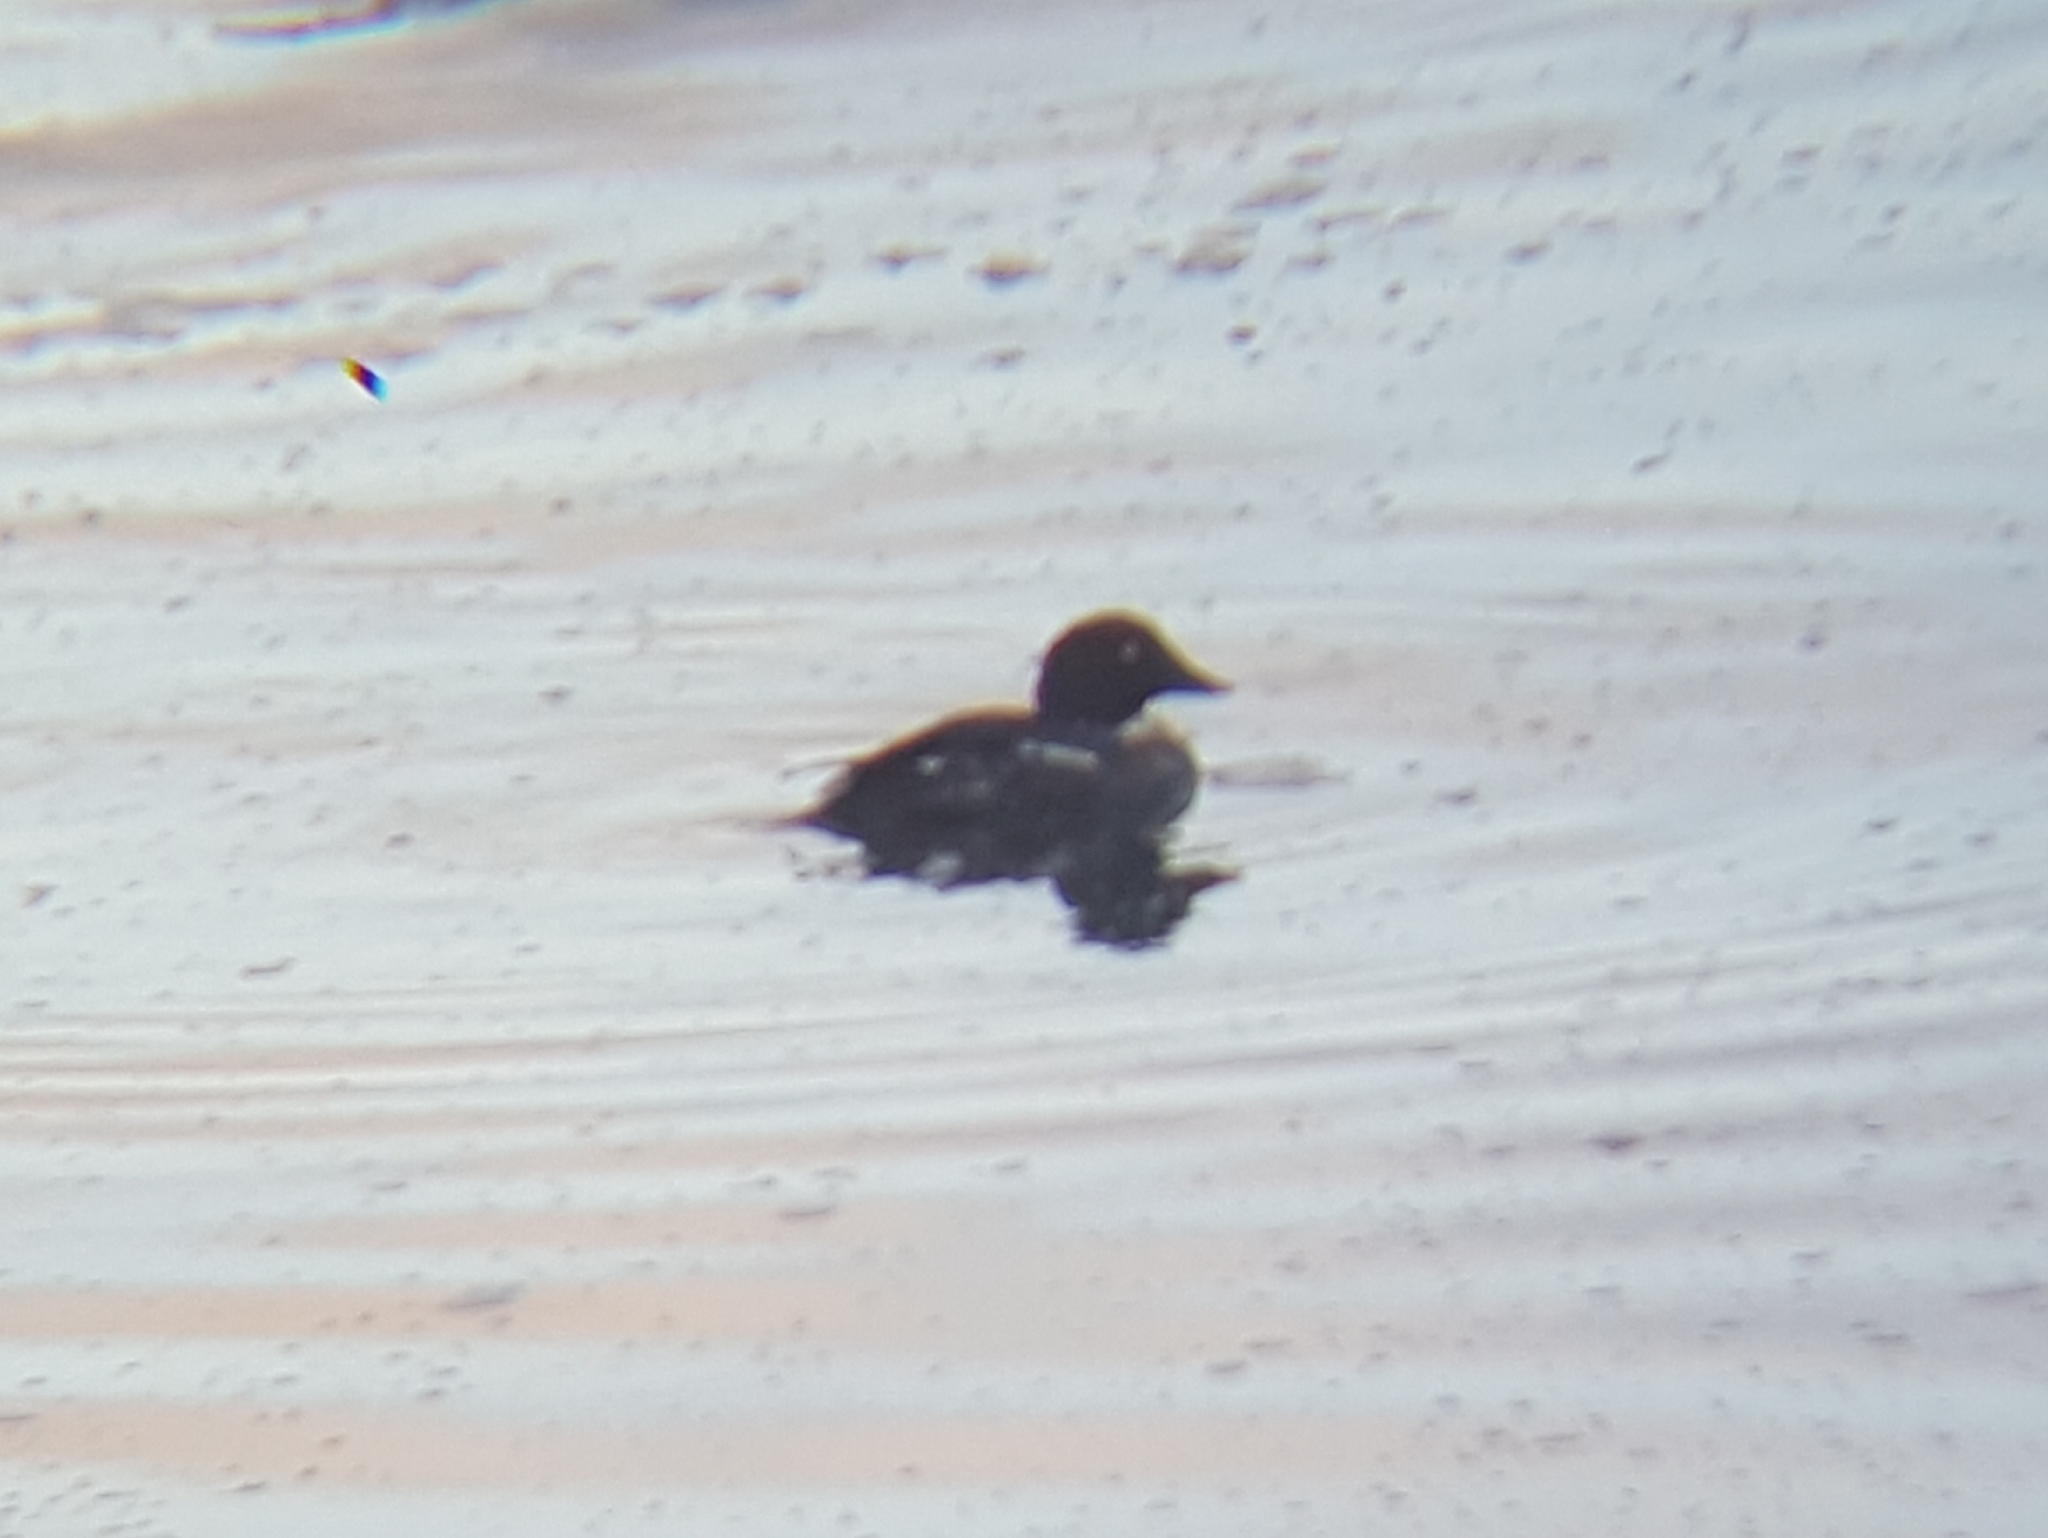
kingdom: Animalia
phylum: Chordata
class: Aves
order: Anseriformes
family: Anatidae
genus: Bucephala
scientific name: Bucephala clangula
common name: Common goldeneye
